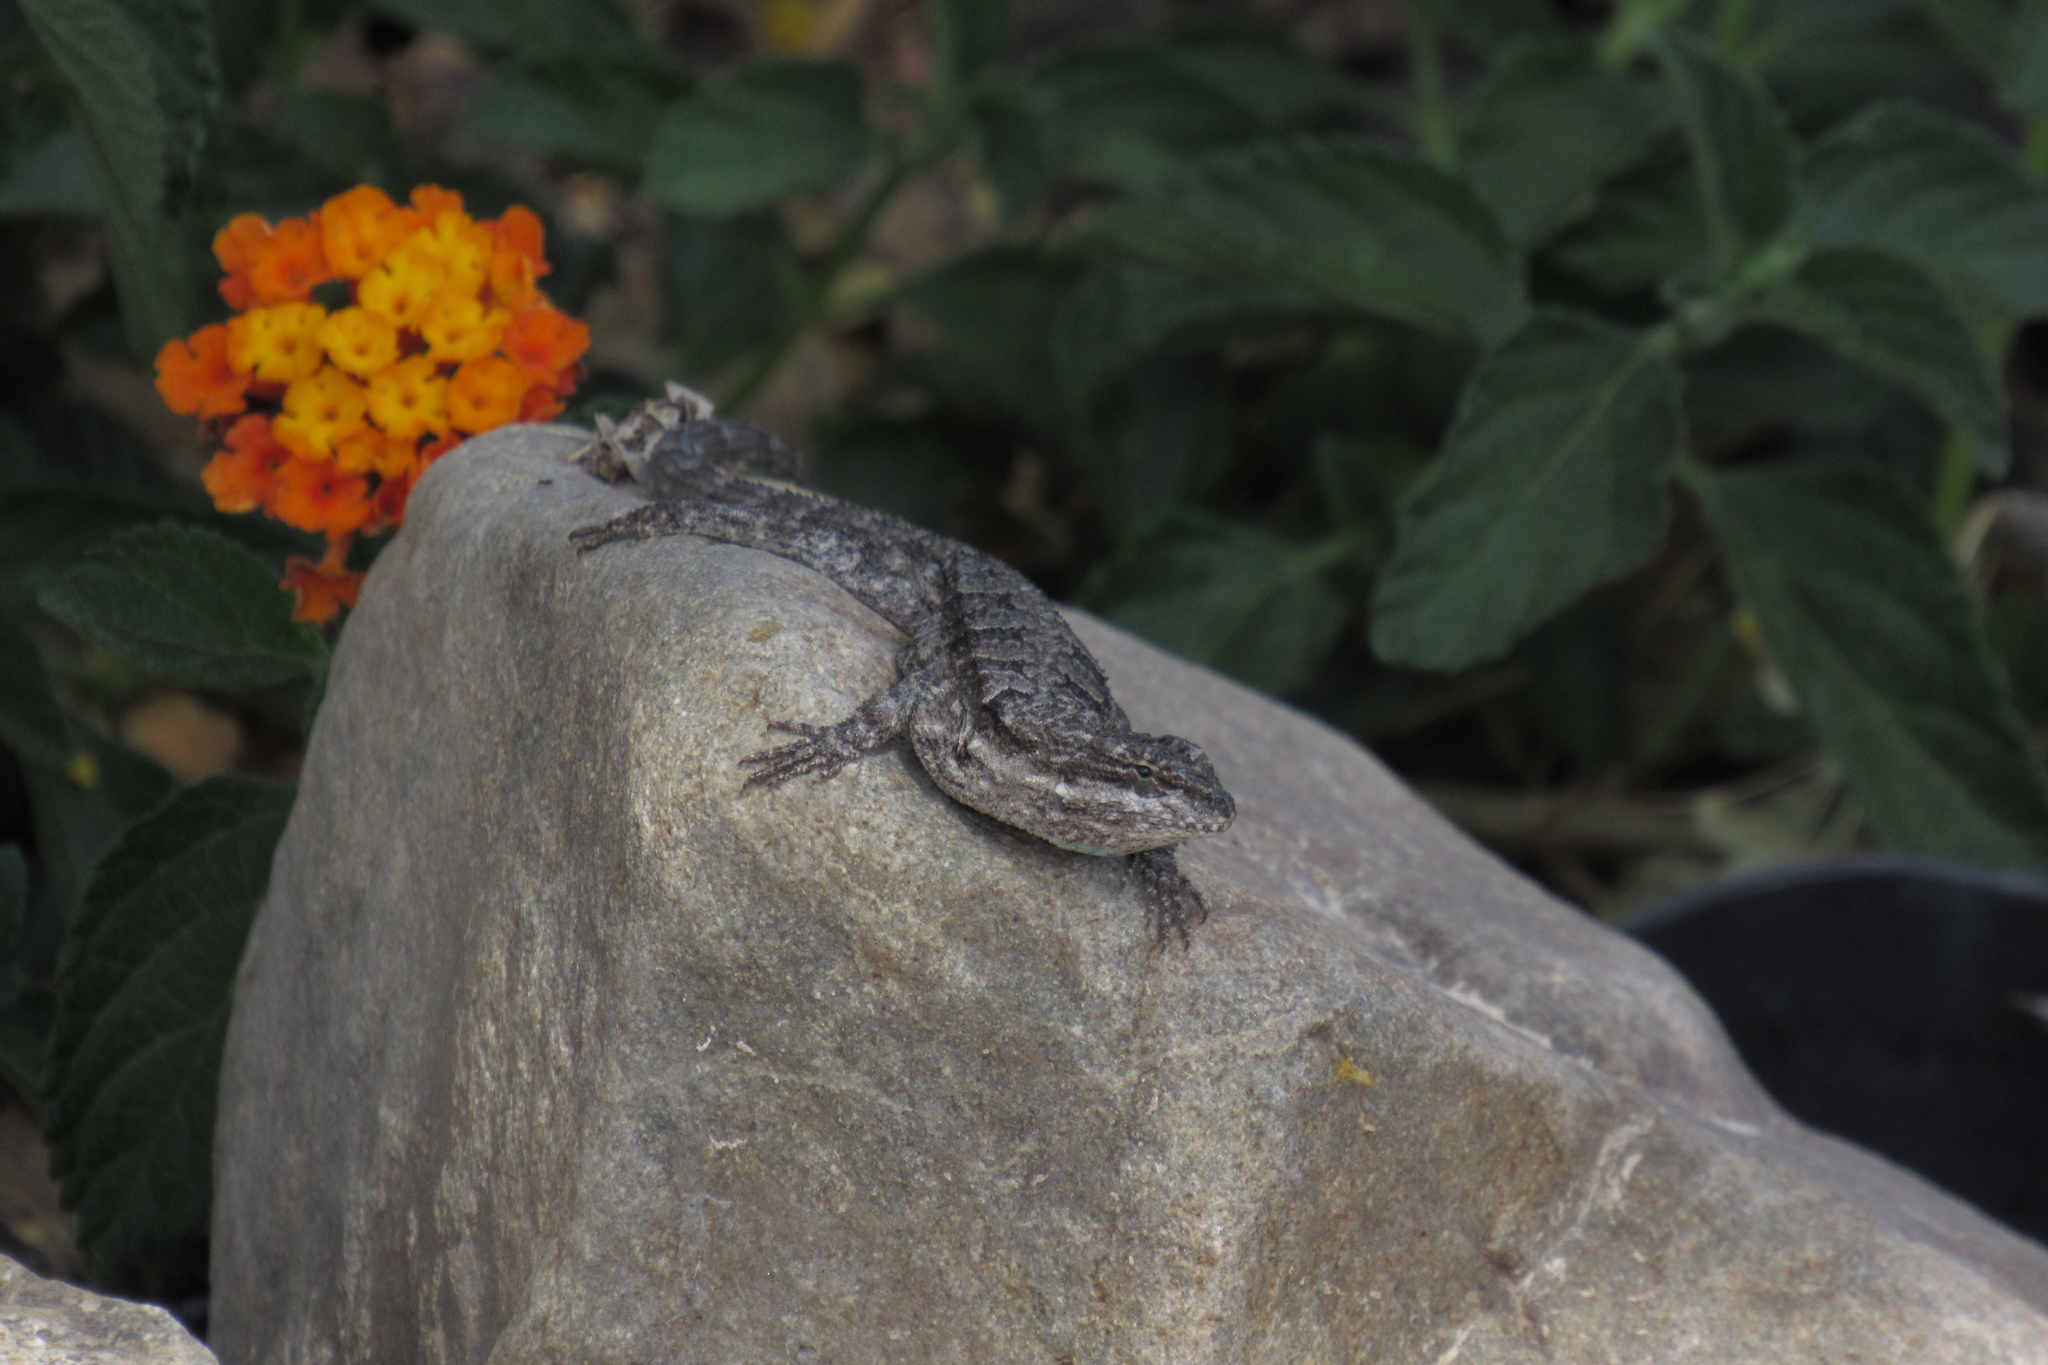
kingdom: Animalia
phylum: Chordata
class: Squamata
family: Phrynosomatidae
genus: Urosaurus
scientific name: Urosaurus ornatus
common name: Ornate tree lizard
